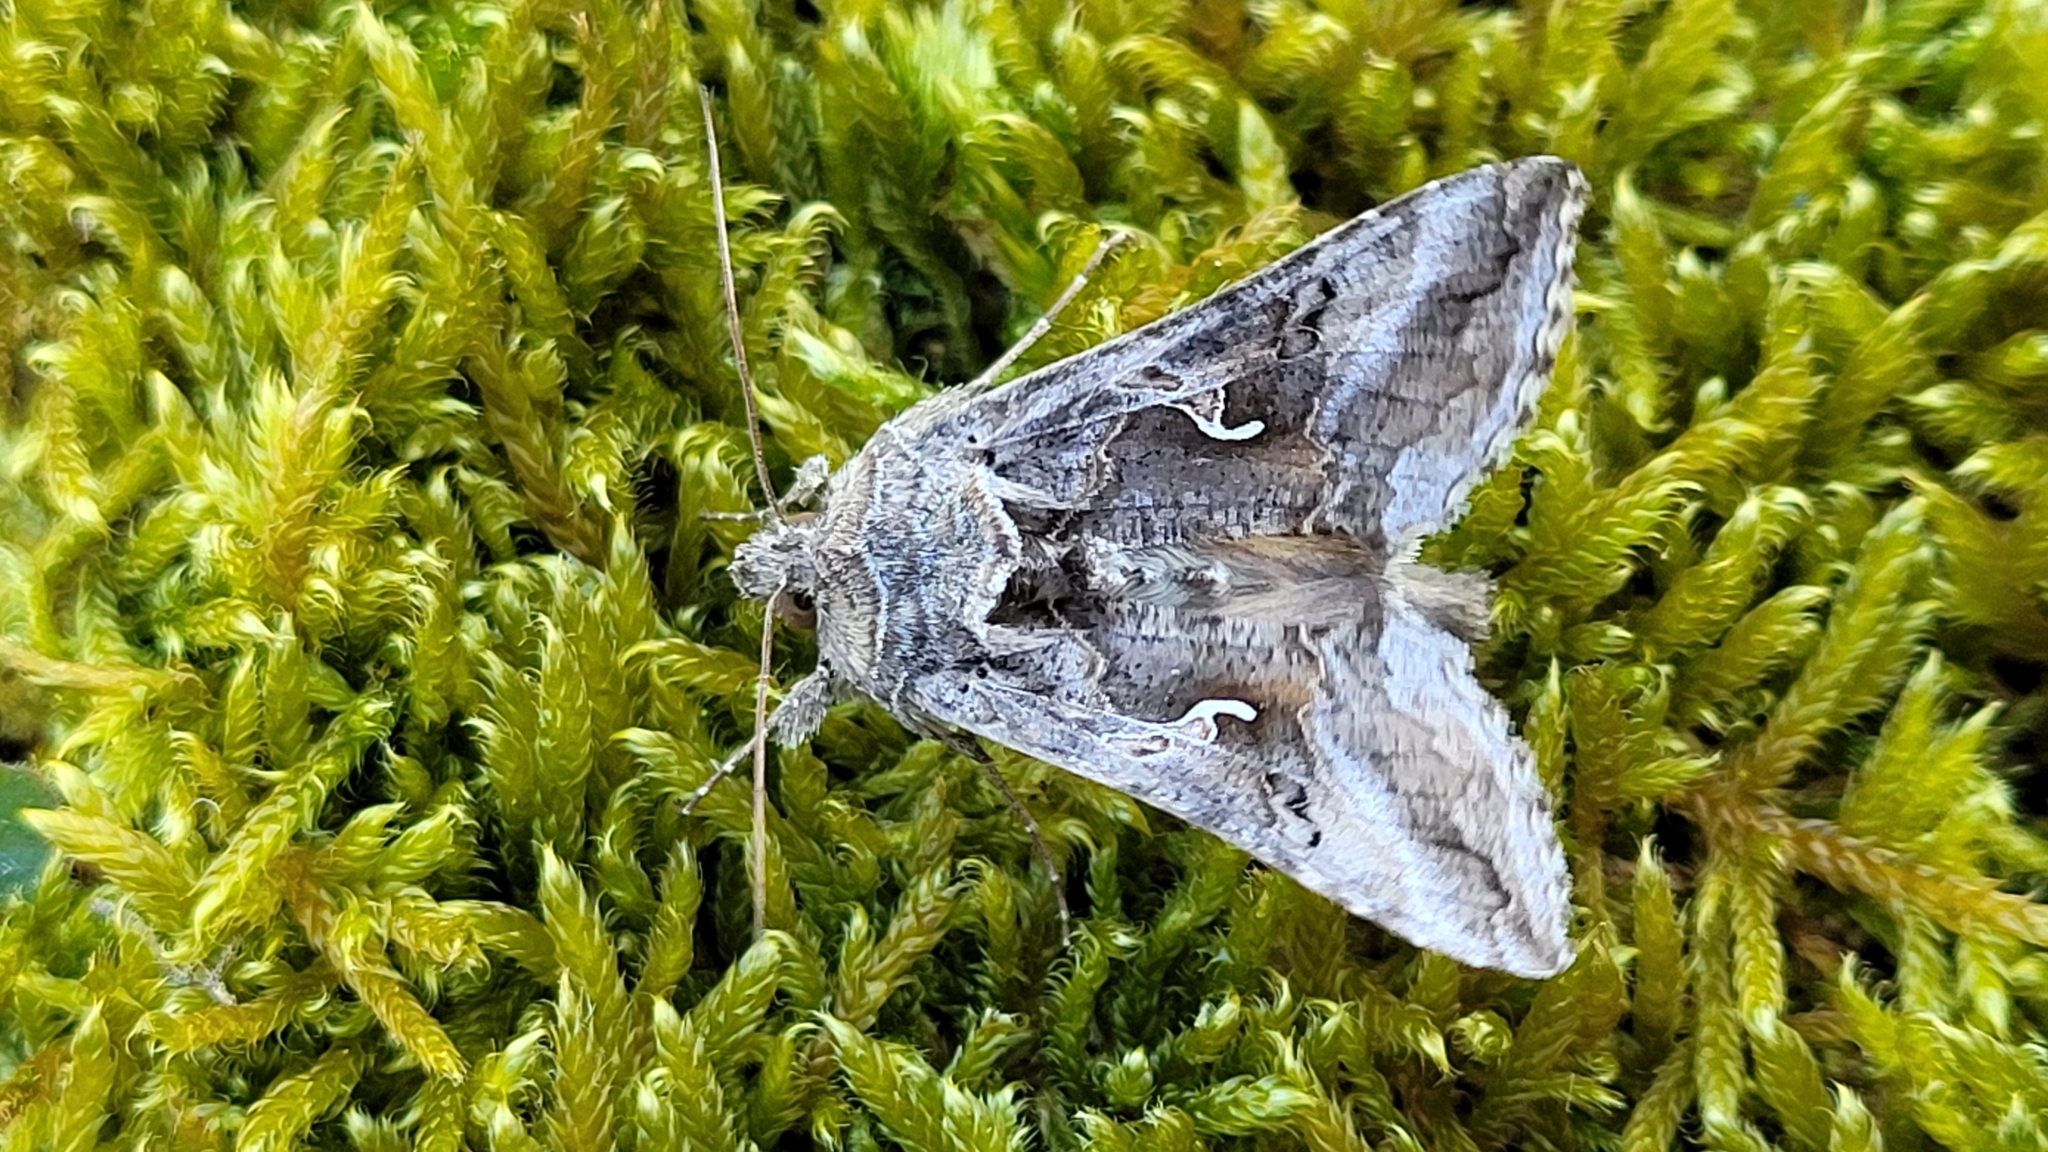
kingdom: Animalia
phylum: Arthropoda
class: Insecta
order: Lepidoptera
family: Noctuidae
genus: Autographa
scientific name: Autographa gamma
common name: Silver y
